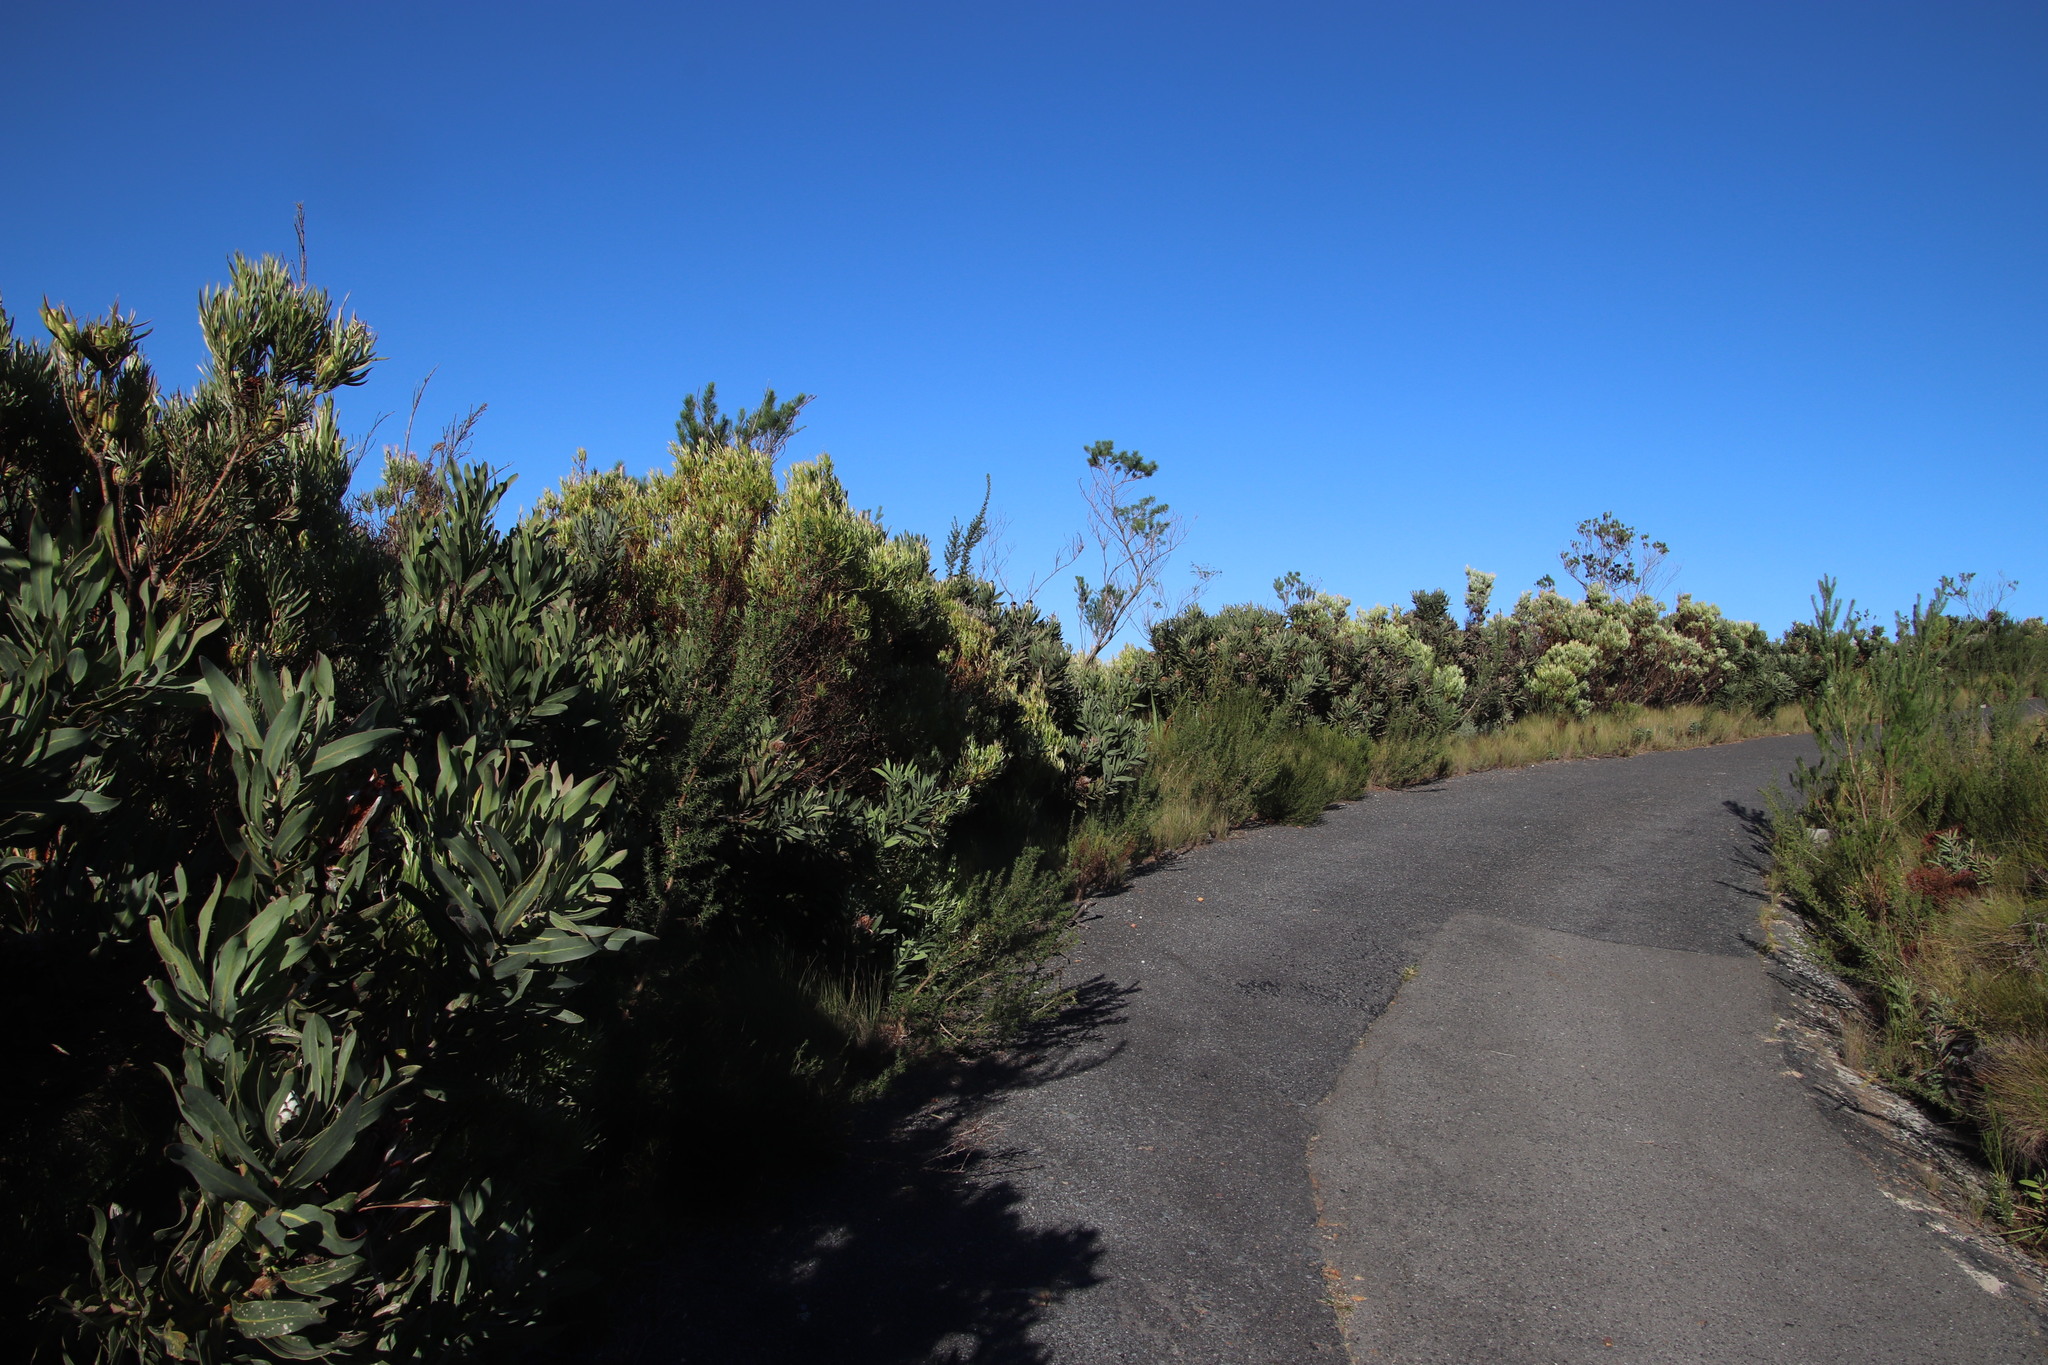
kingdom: Plantae
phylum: Tracheophyta
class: Magnoliopsida
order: Proteales
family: Proteaceae
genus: Protea
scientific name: Protea neriifolia
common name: Blue sugarbush
